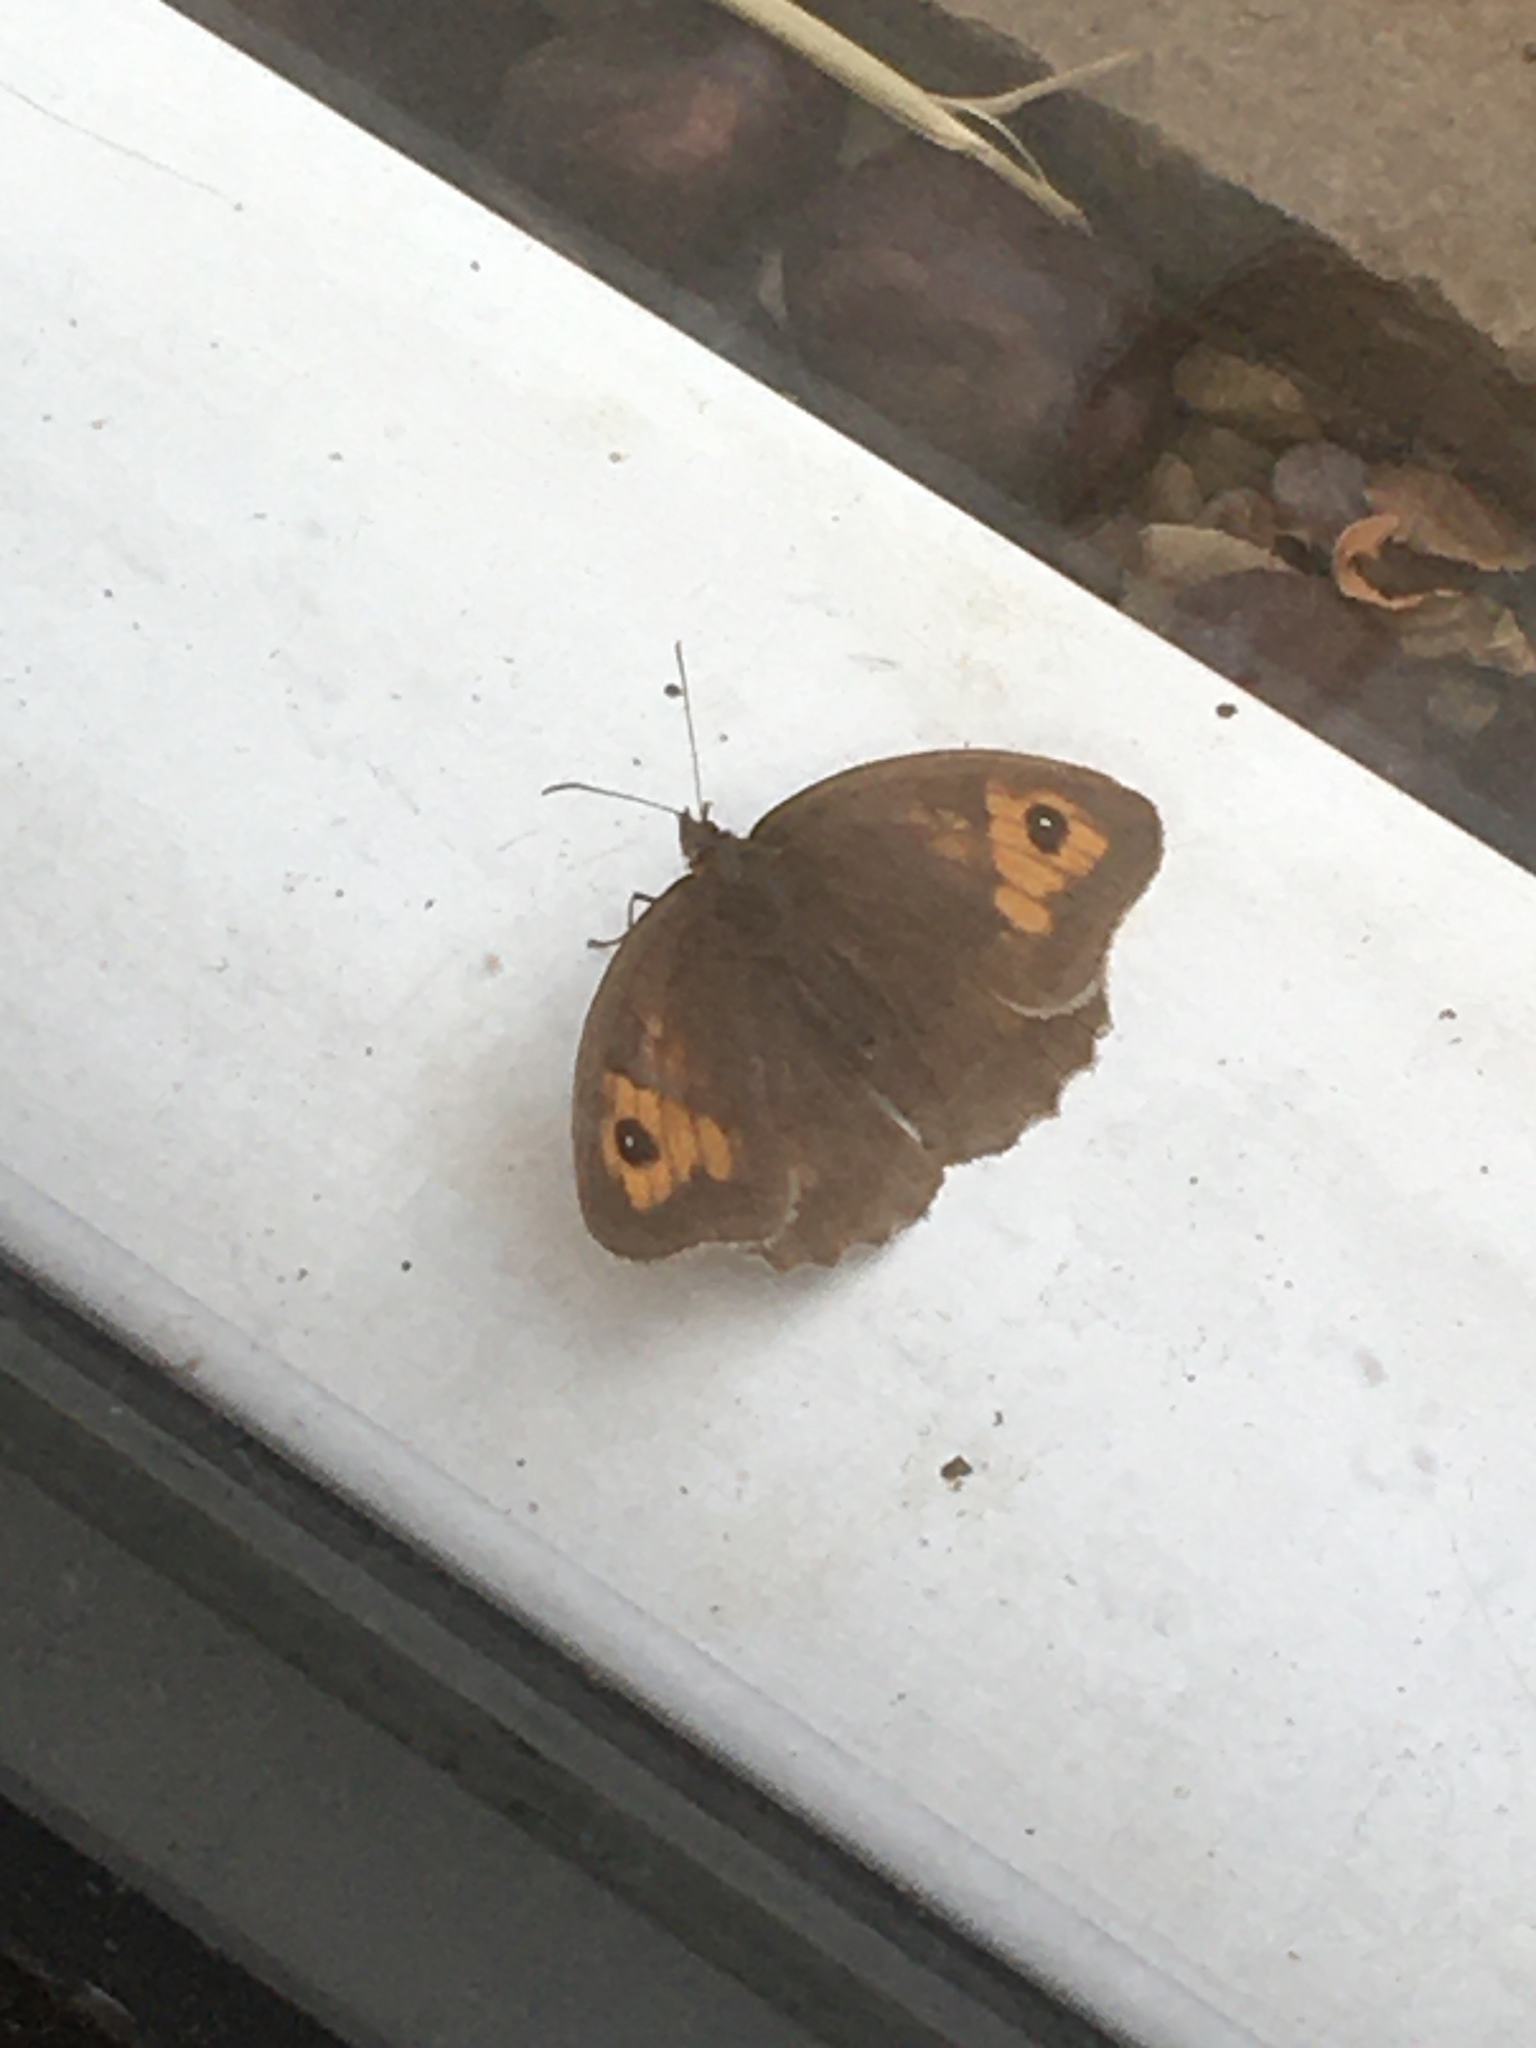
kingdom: Animalia
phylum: Arthropoda
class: Insecta
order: Lepidoptera
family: Nymphalidae
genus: Maniola
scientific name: Maniola jurtina
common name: Meadow brown
